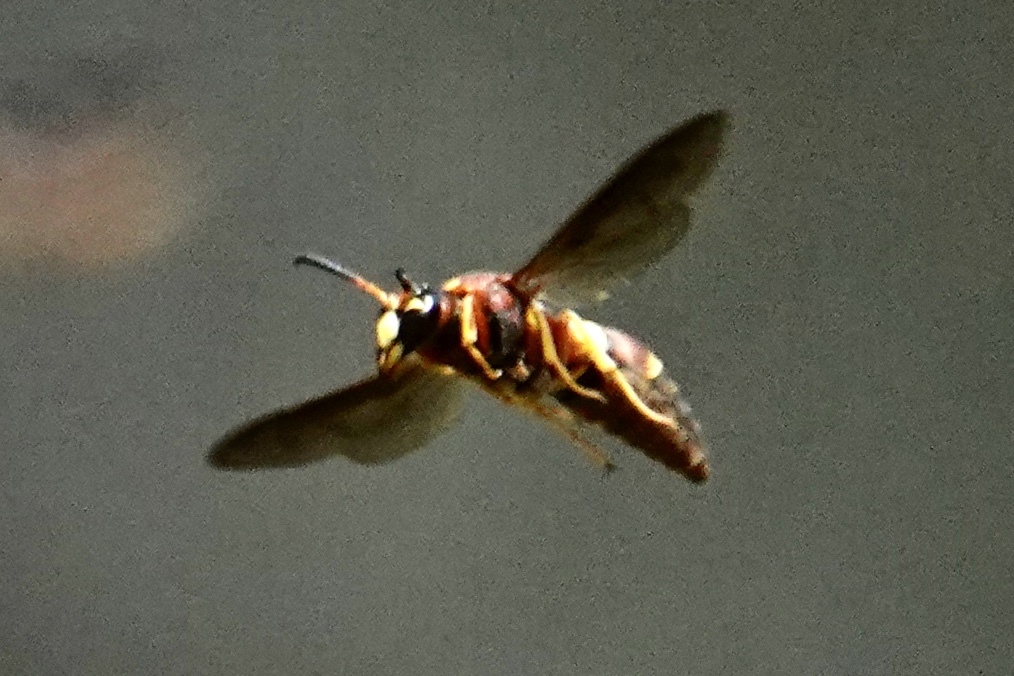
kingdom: Animalia
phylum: Arthropoda
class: Insecta
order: Hymenoptera
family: Eumenidae
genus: Euodynerus
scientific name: Euodynerus crypticus
